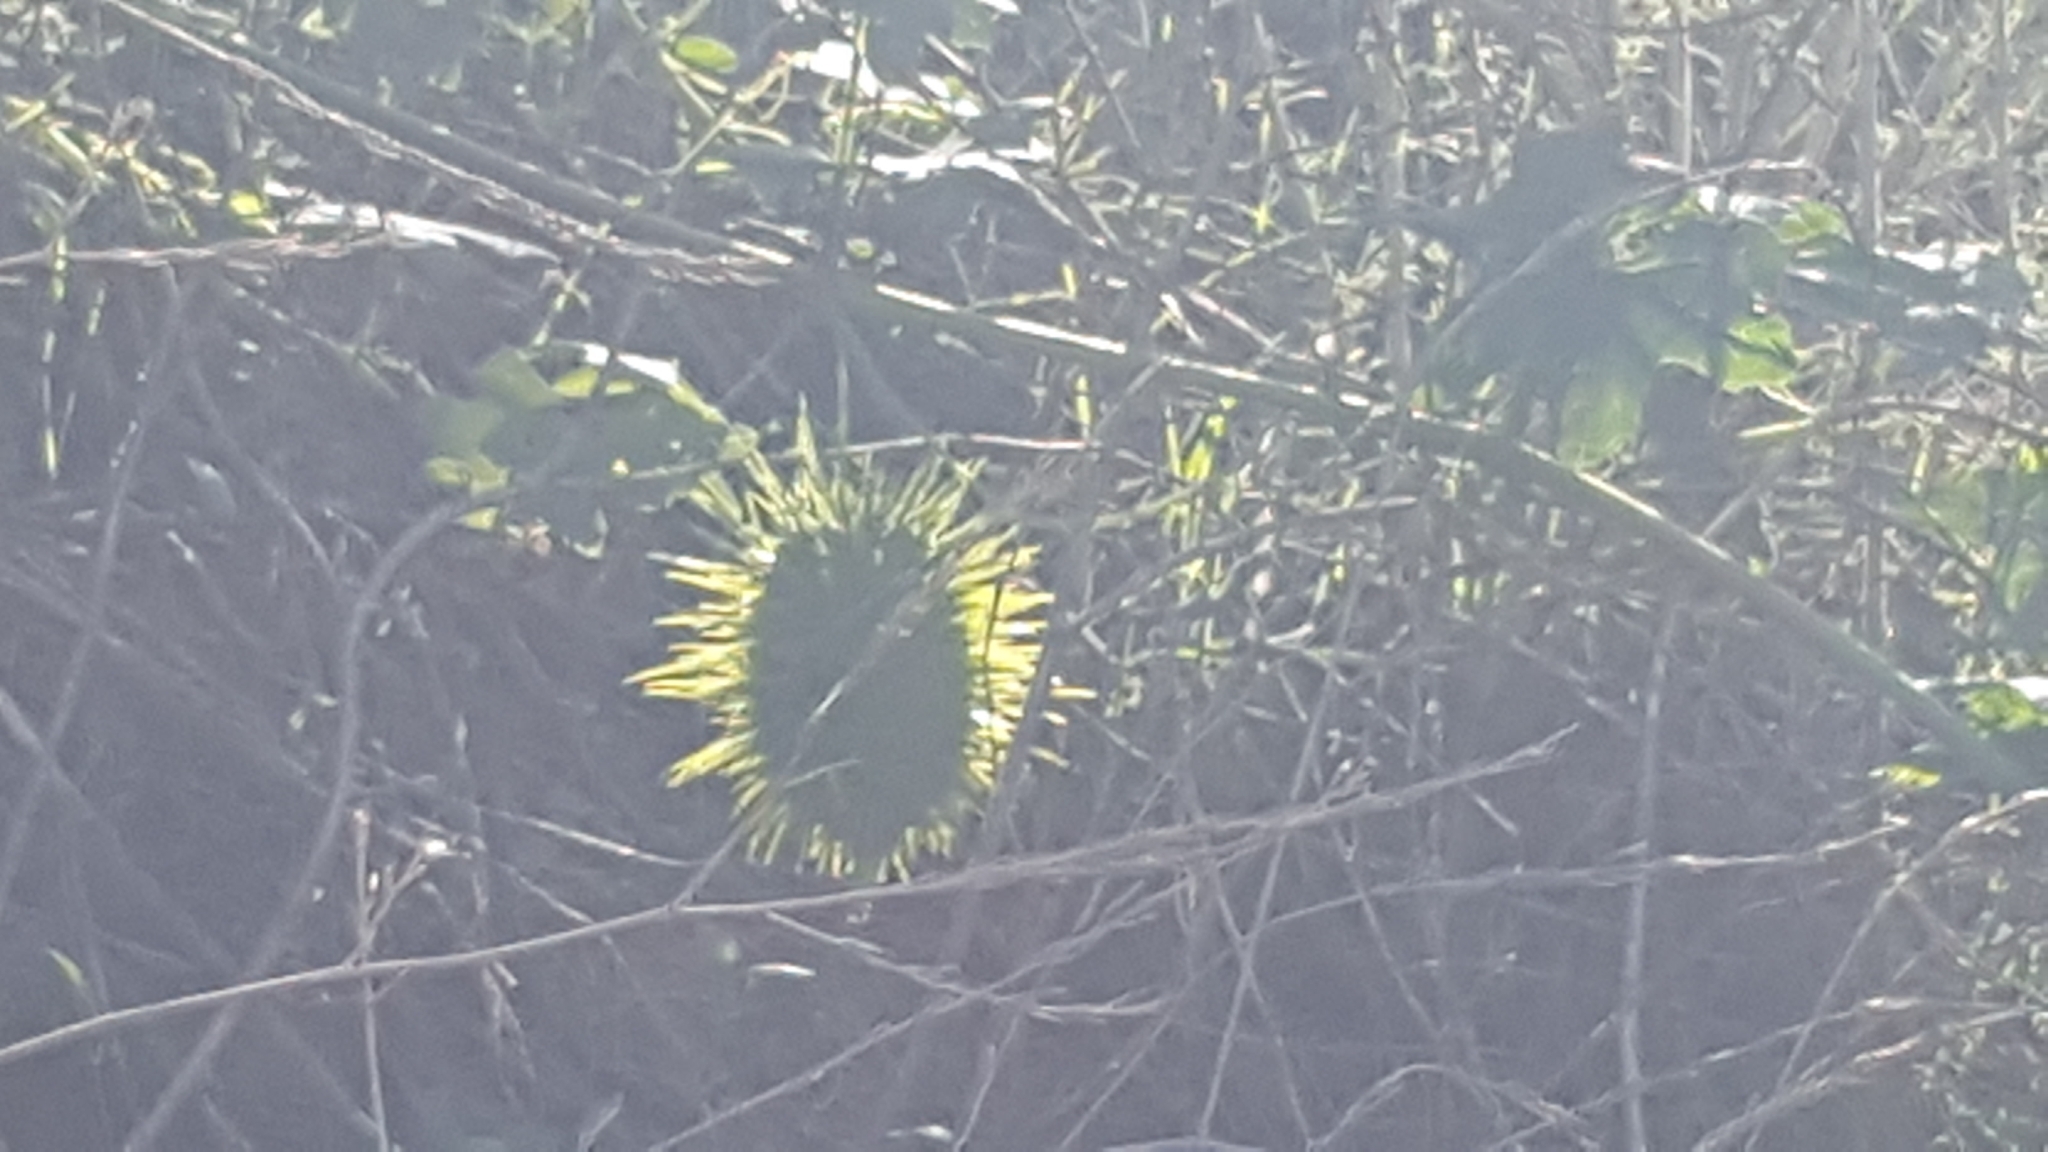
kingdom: Plantae
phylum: Tracheophyta
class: Magnoliopsida
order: Cucurbitales
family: Cucurbitaceae
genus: Marah
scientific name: Marah macrocarpa
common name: Cucamonga manroot
